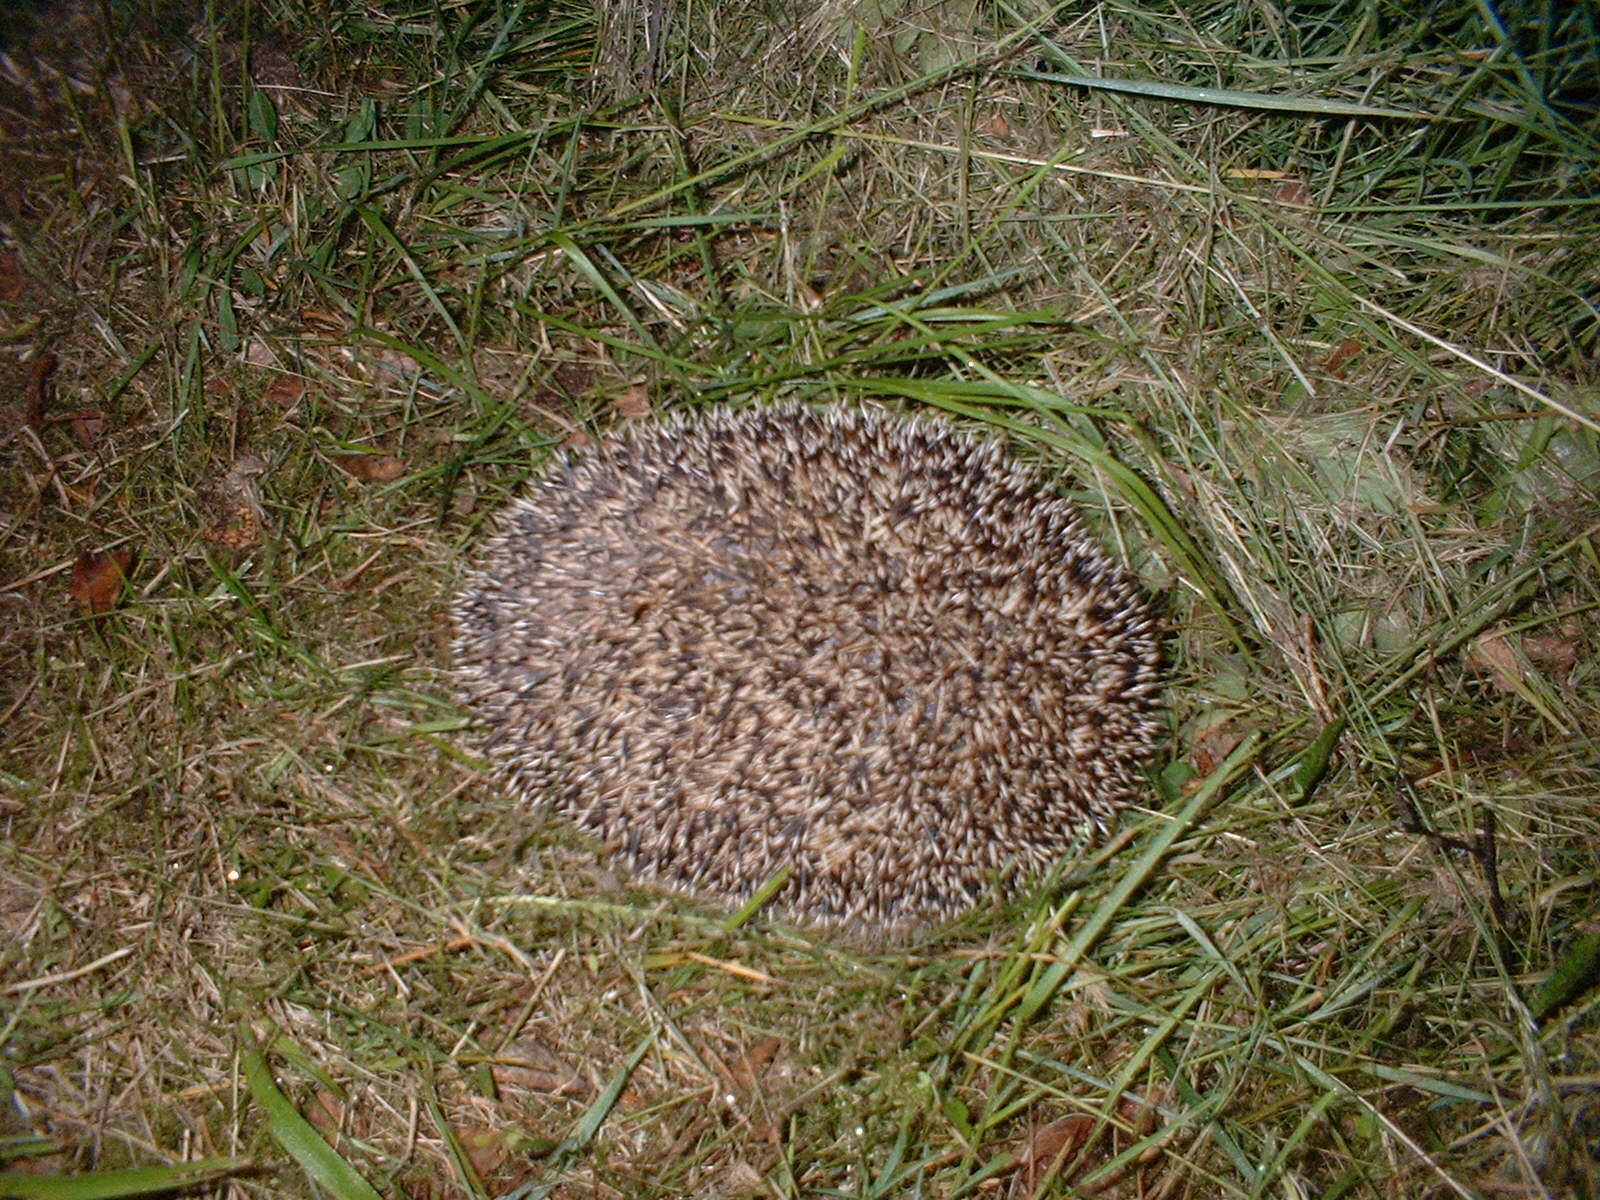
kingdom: Animalia
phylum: Chordata
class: Mammalia
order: Erinaceomorpha
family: Erinaceidae
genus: Erinaceus
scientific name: Erinaceus europaeus
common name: West european hedgehog
